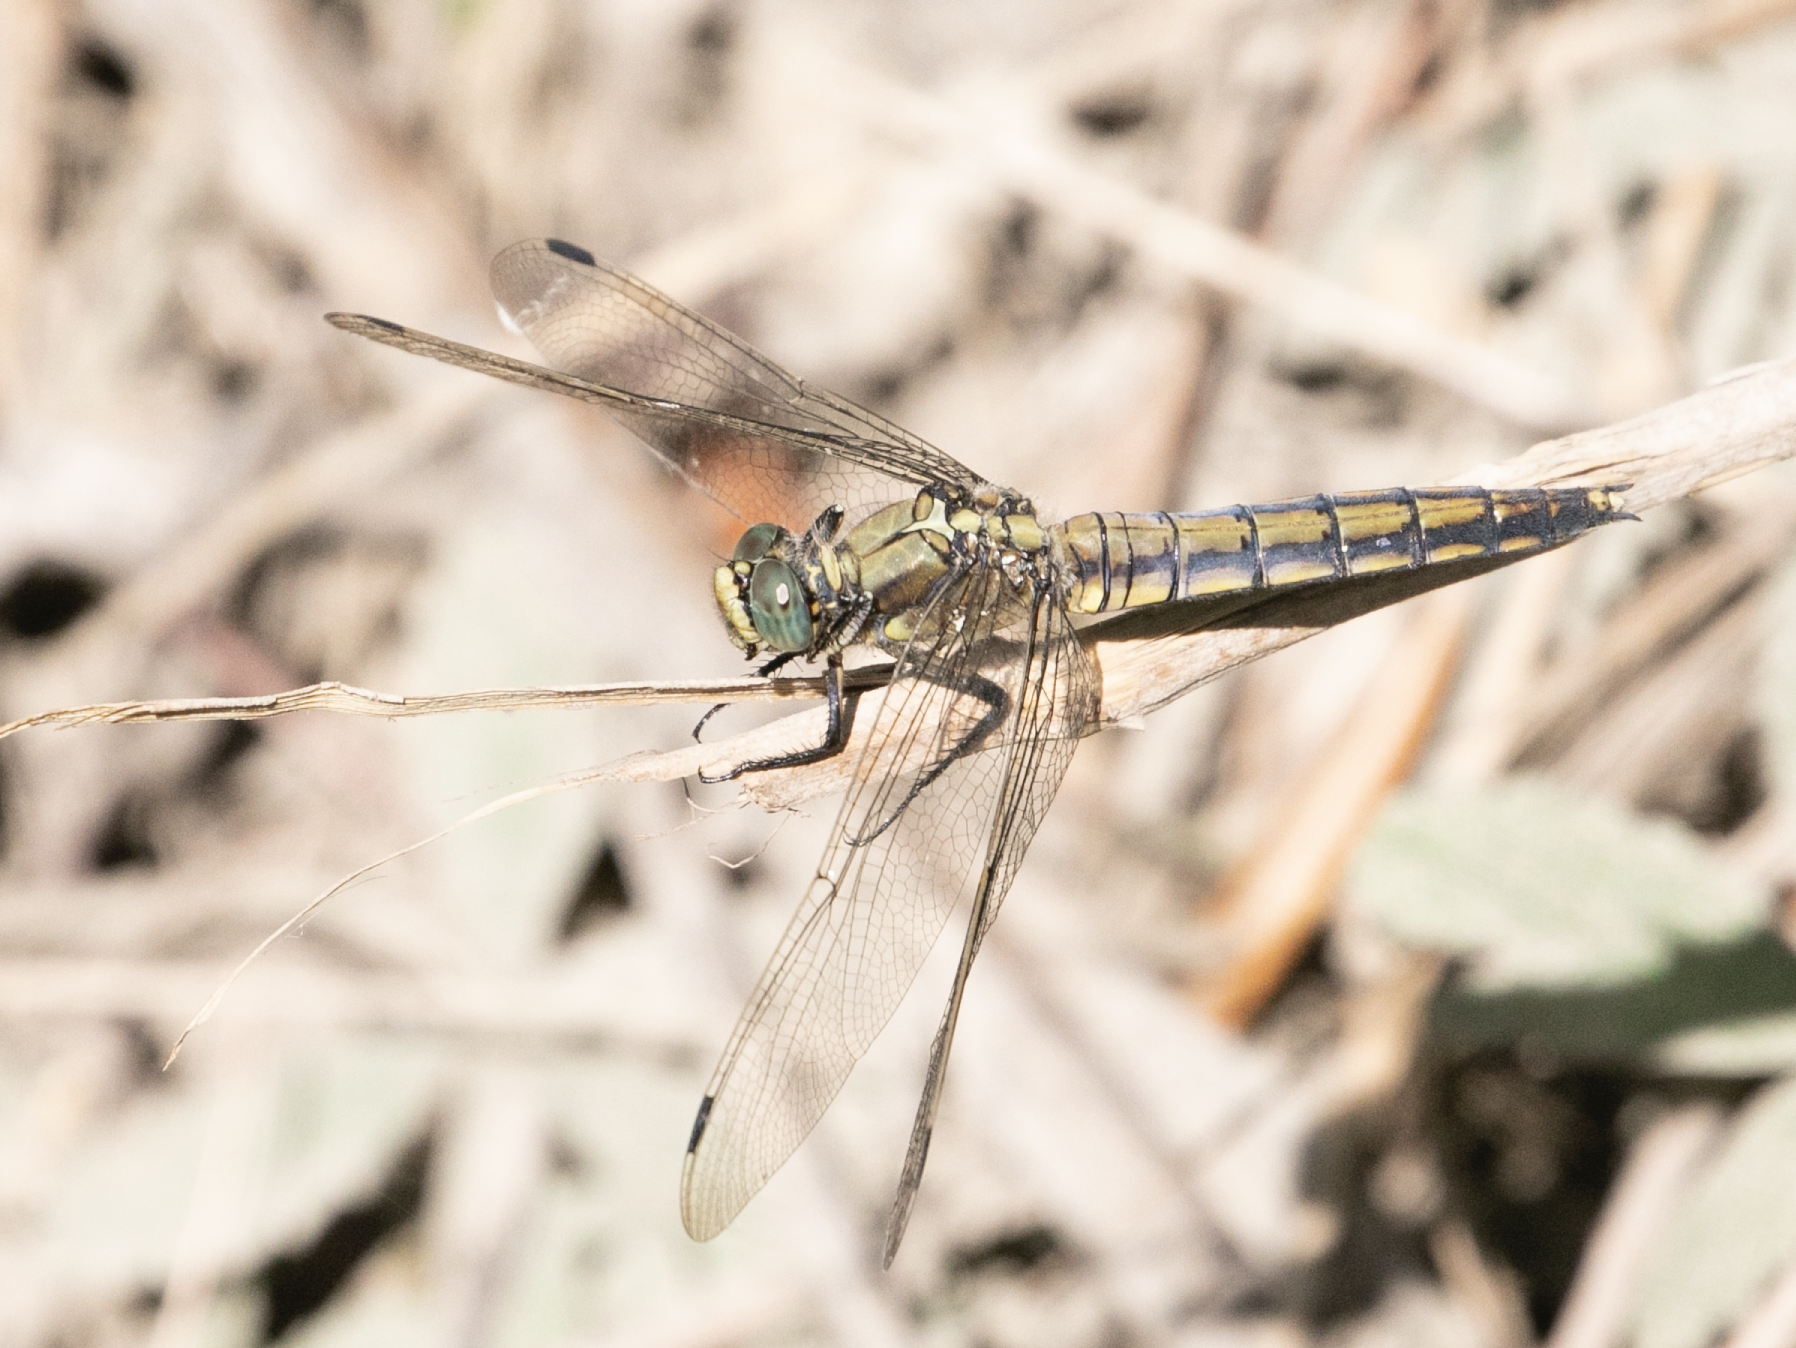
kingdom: Animalia
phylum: Arthropoda
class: Insecta
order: Odonata
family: Libellulidae
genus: Orthetrum
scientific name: Orthetrum cancellatum
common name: Black-tailed skimmer
